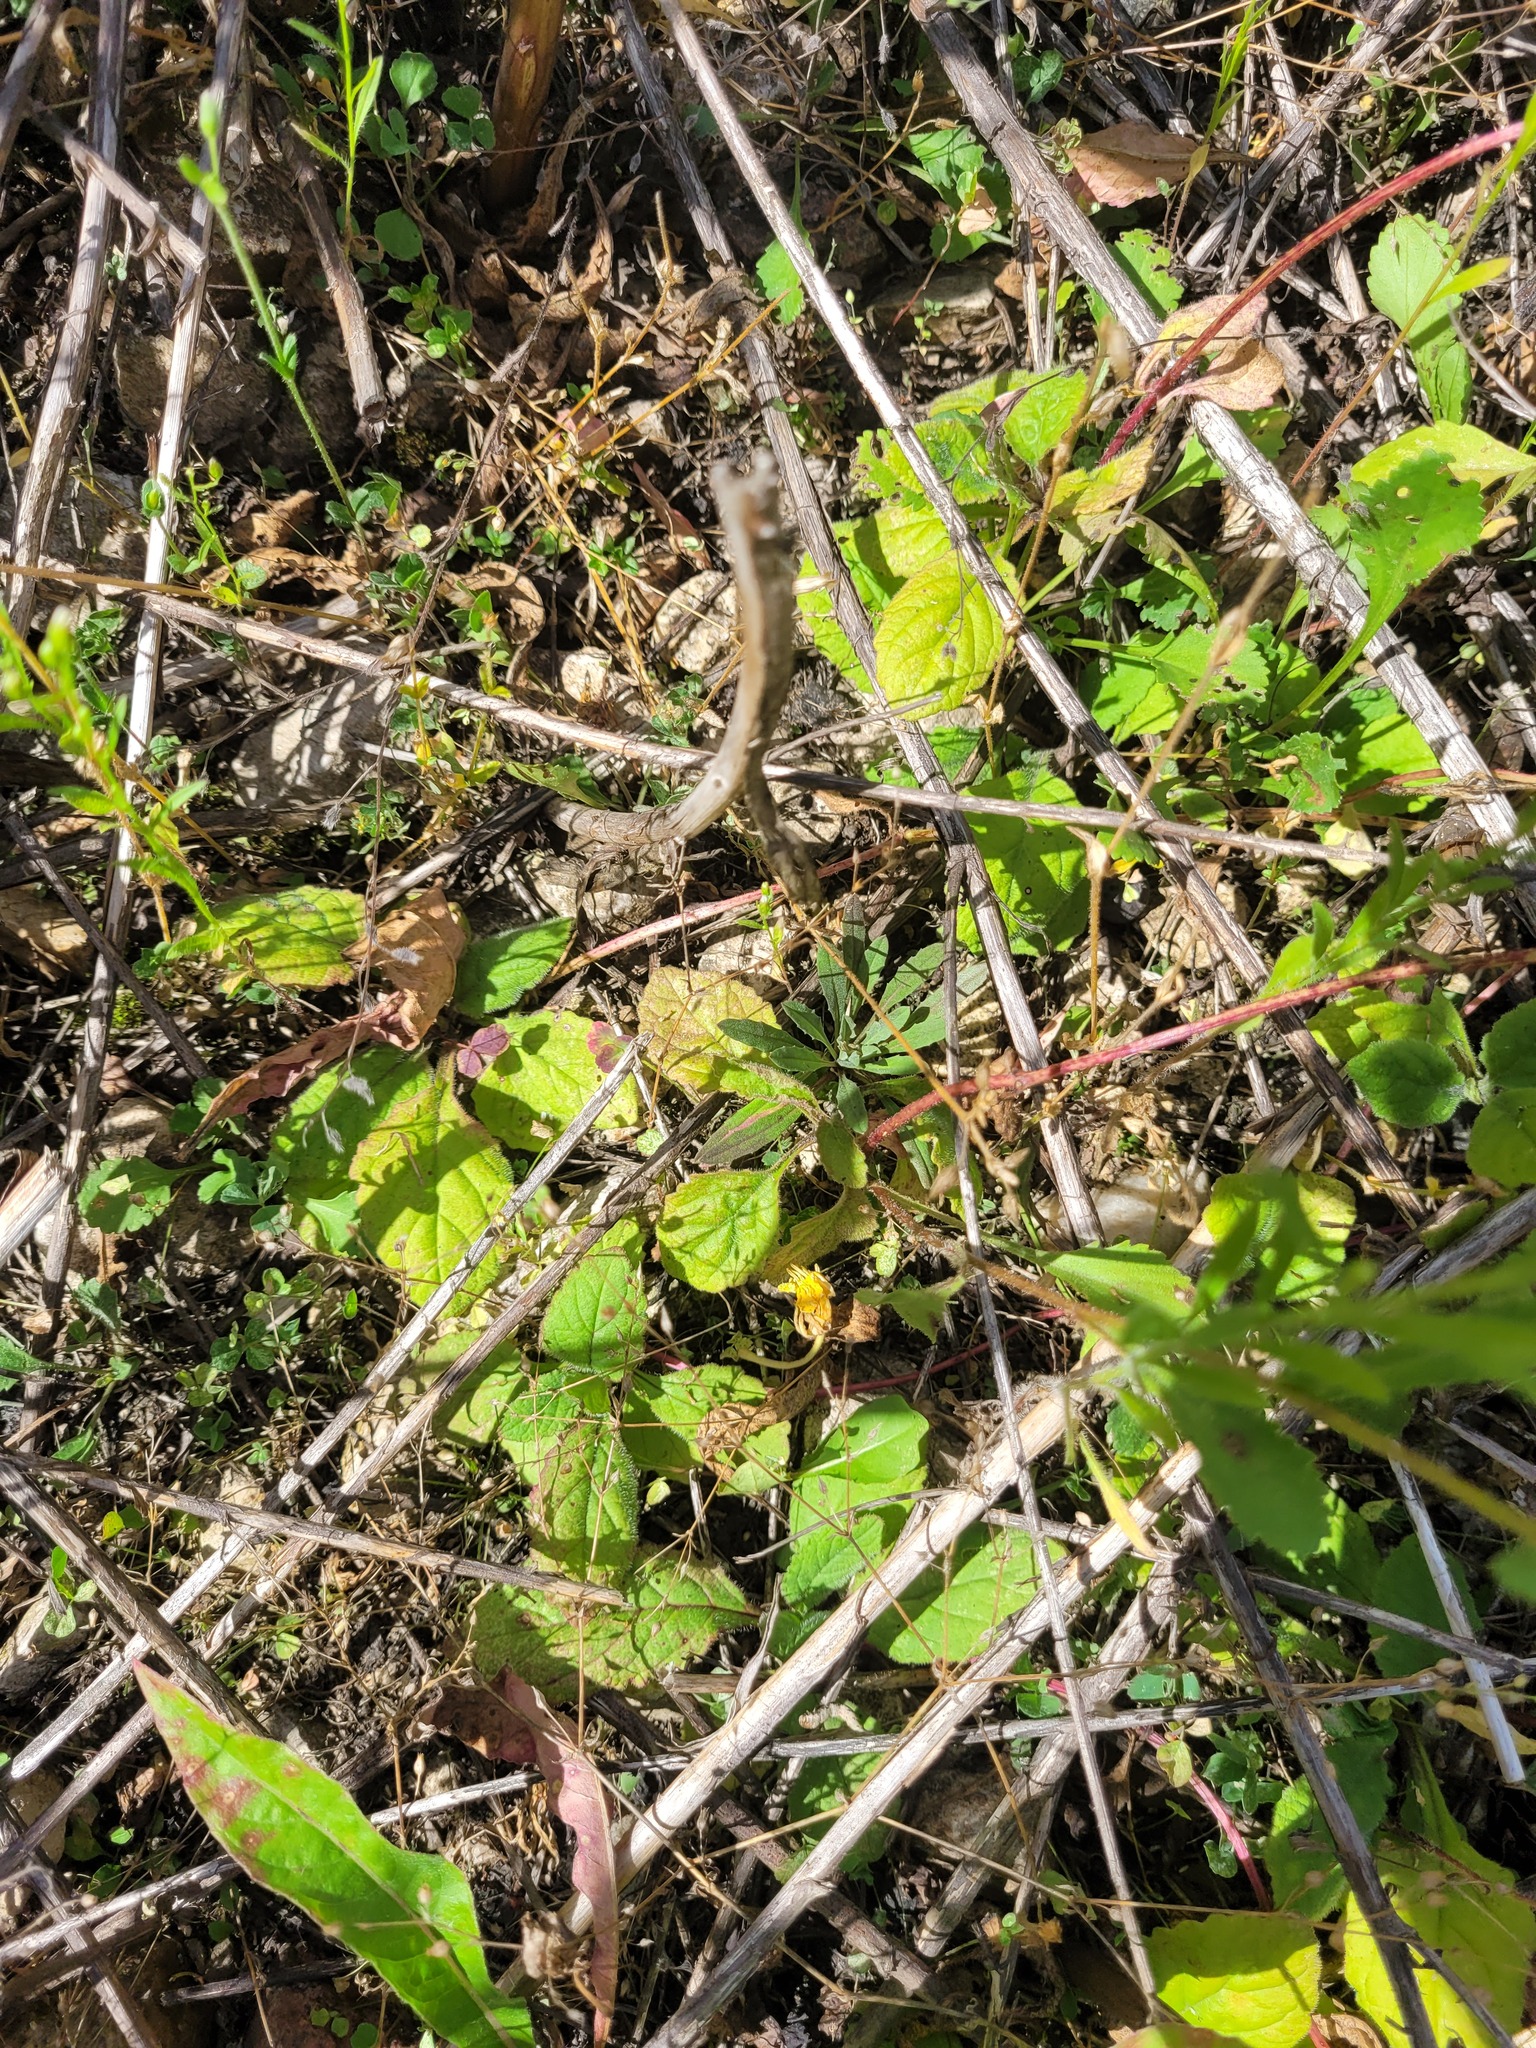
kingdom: Plantae
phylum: Tracheophyta
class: Magnoliopsida
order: Lamiales
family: Lamiaceae
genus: Ajuga
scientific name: Ajuga reptans
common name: Bugle
